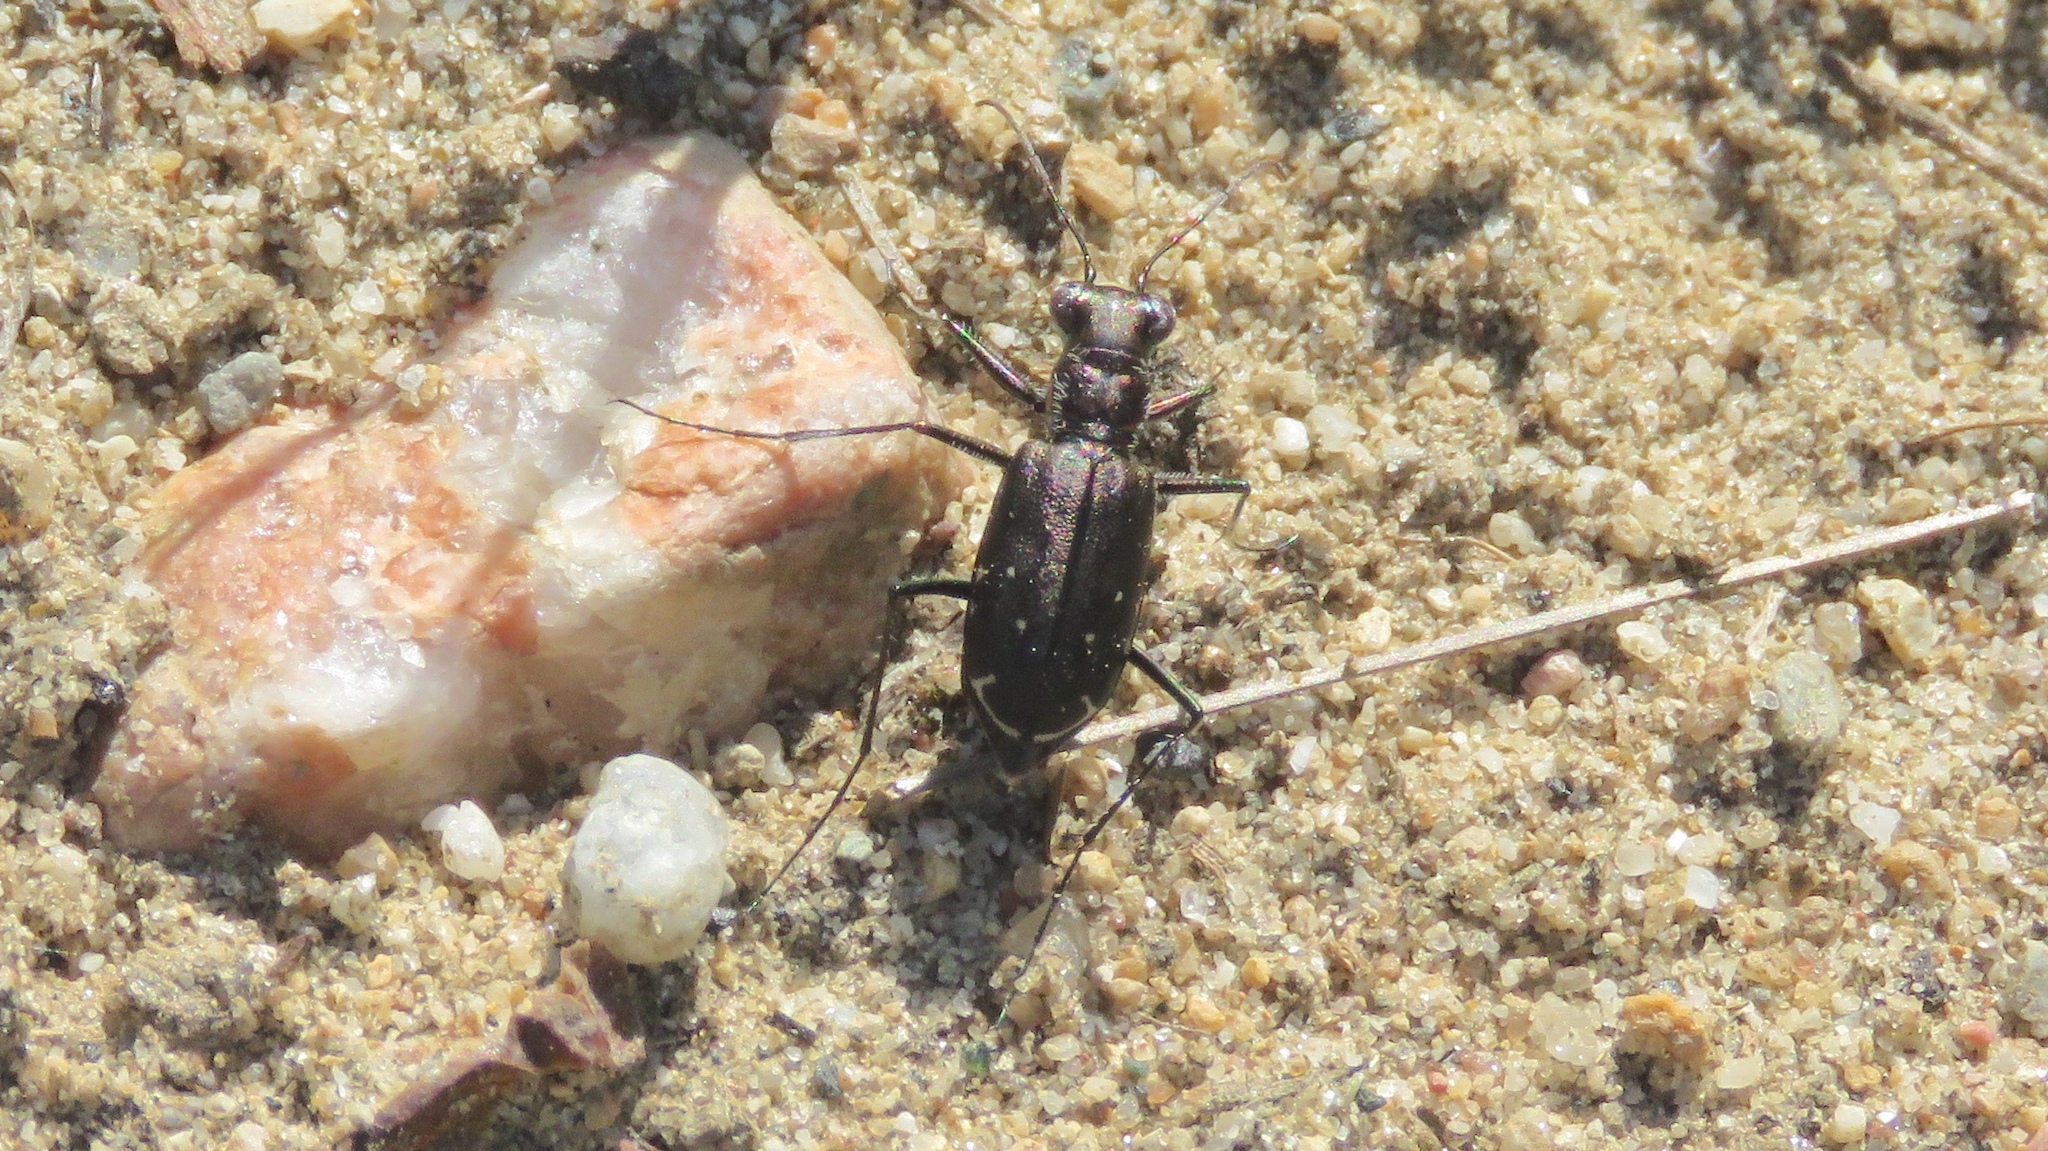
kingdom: Animalia
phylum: Arthropoda
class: Insecta
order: Coleoptera
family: Carabidae
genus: Cicindela
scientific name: Cicindela punctulata
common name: Punctured tiger beetle
